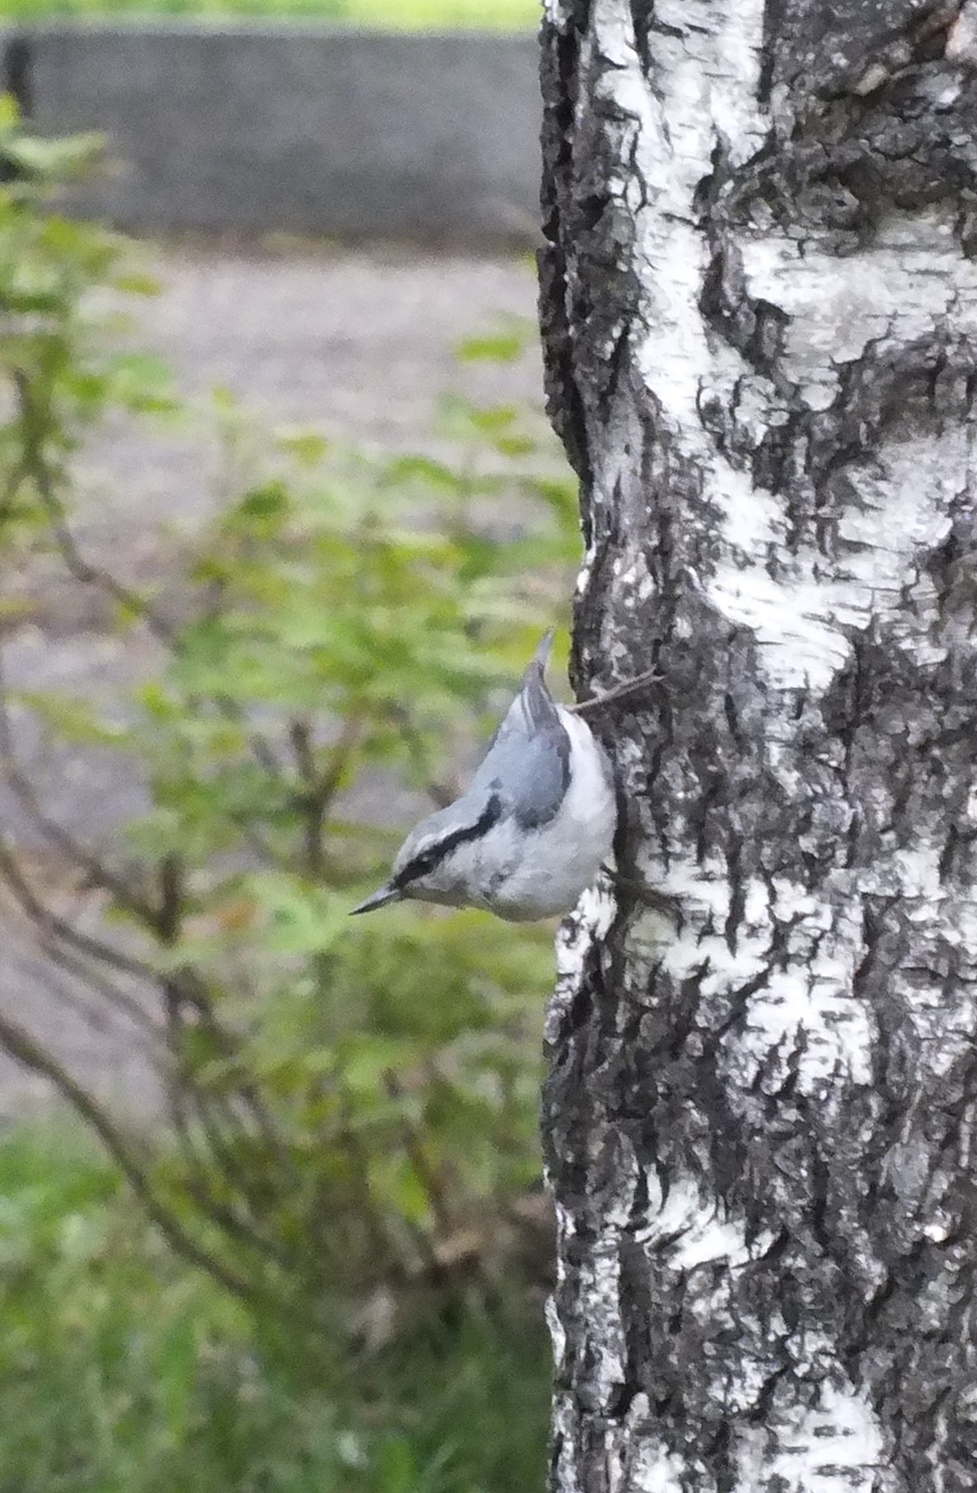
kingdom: Animalia
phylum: Chordata
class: Aves
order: Passeriformes
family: Sittidae
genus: Sitta
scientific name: Sitta europaea
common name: Eurasian nuthatch
